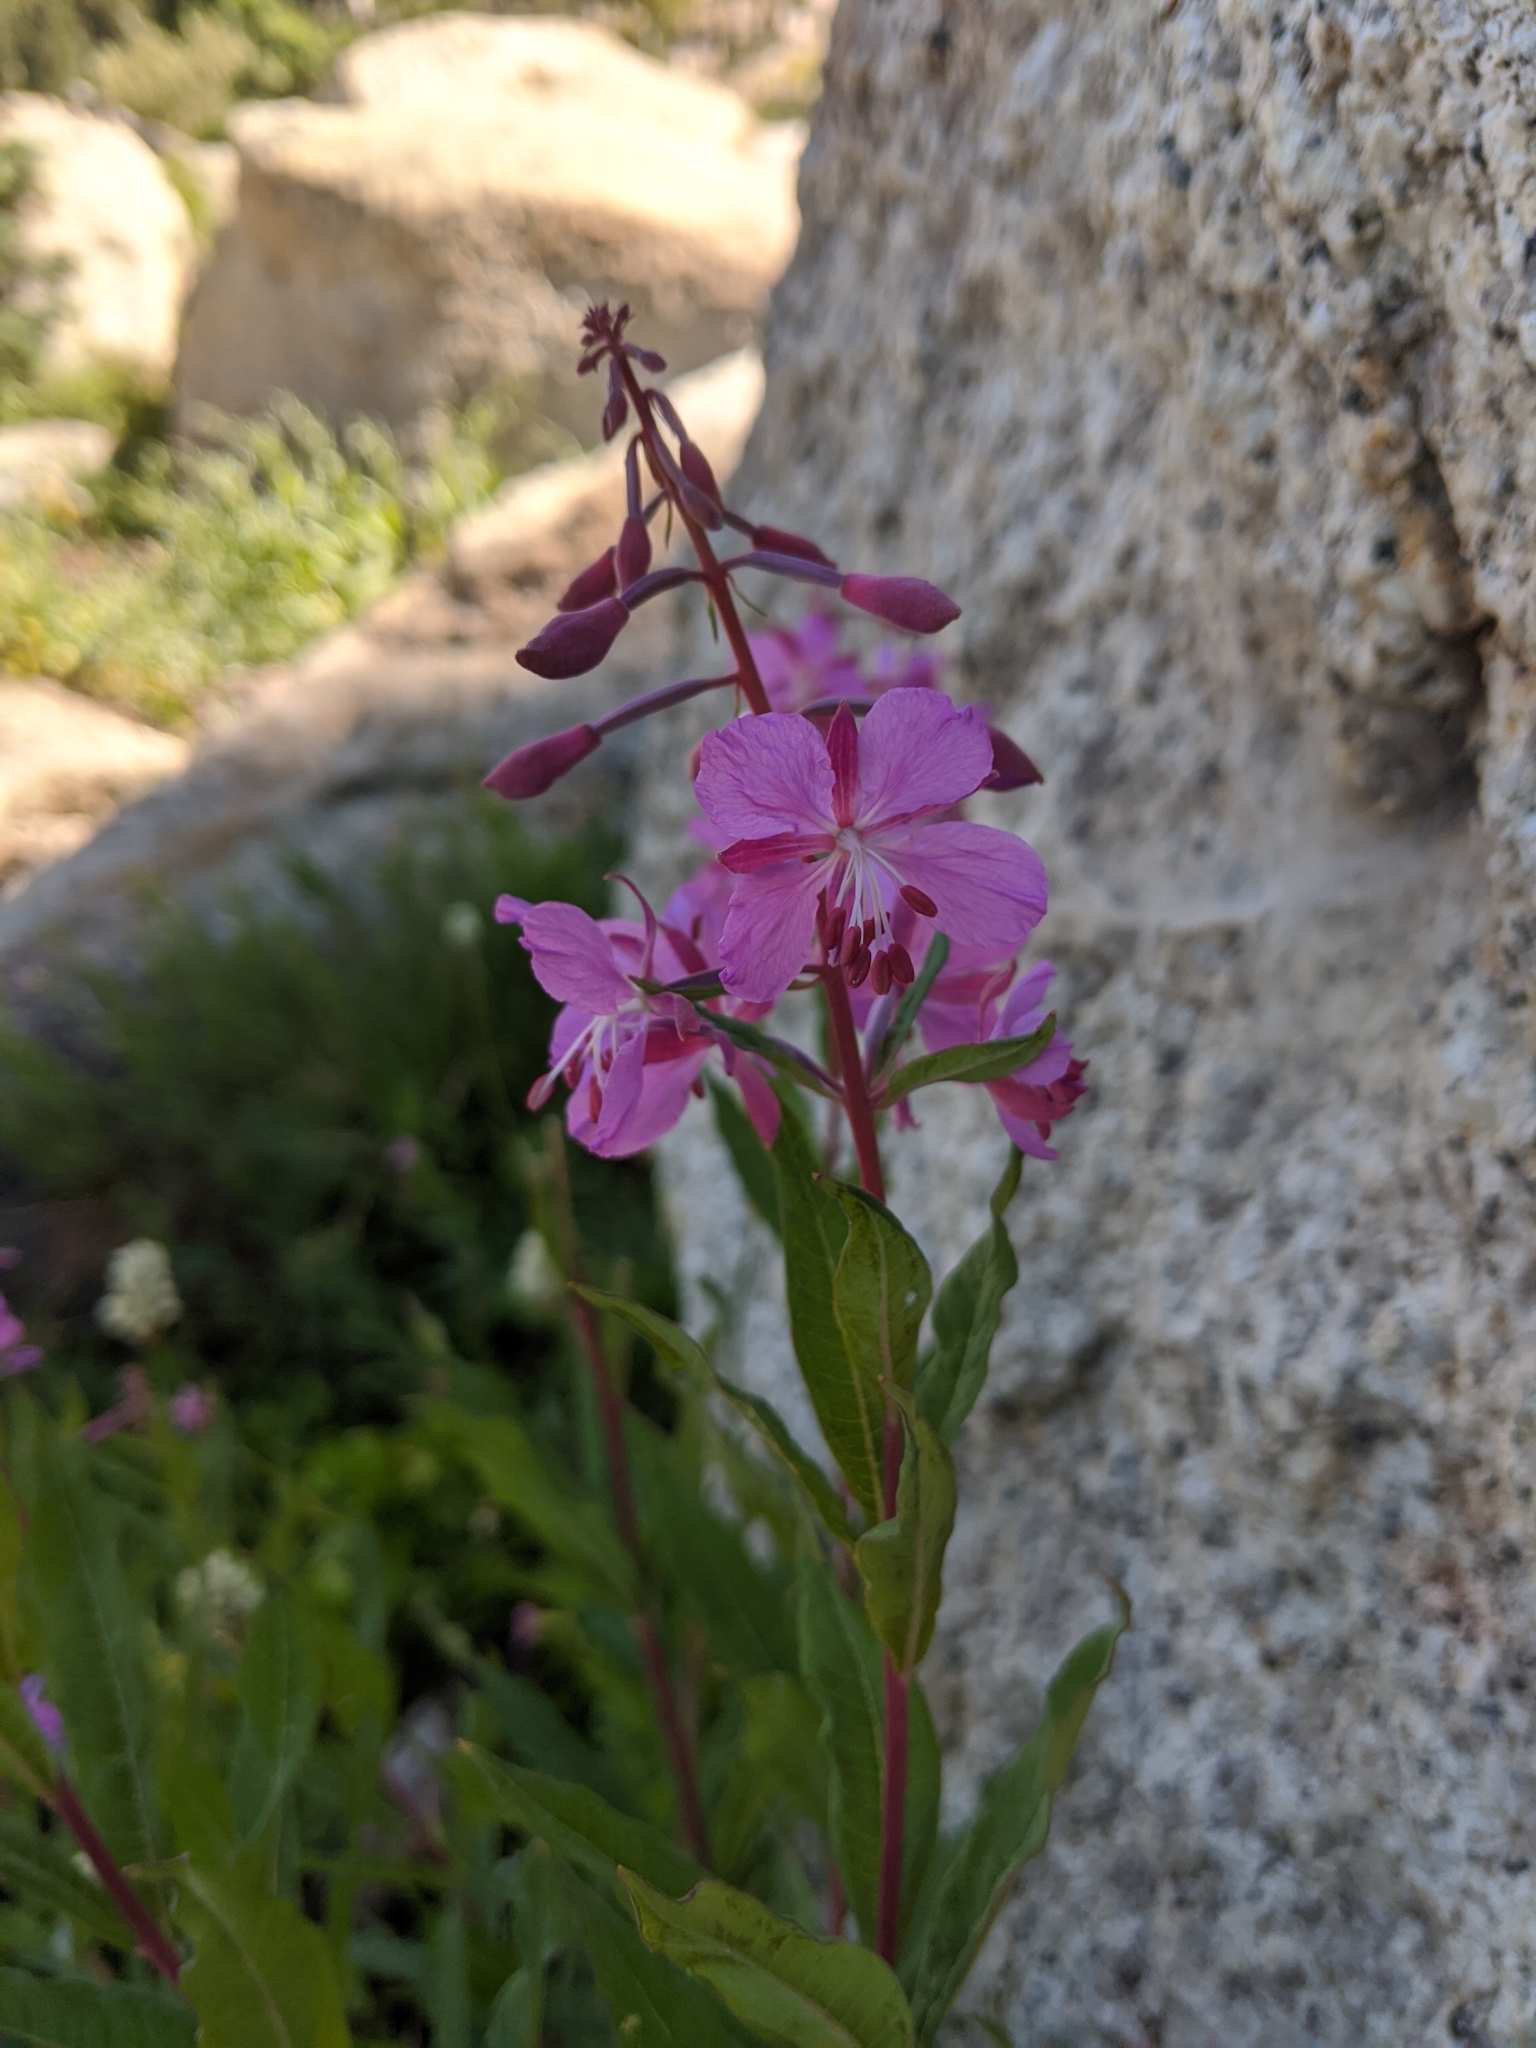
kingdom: Plantae
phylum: Tracheophyta
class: Magnoliopsida
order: Myrtales
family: Onagraceae
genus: Chamaenerion
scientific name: Chamaenerion angustifolium
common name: Fireweed
